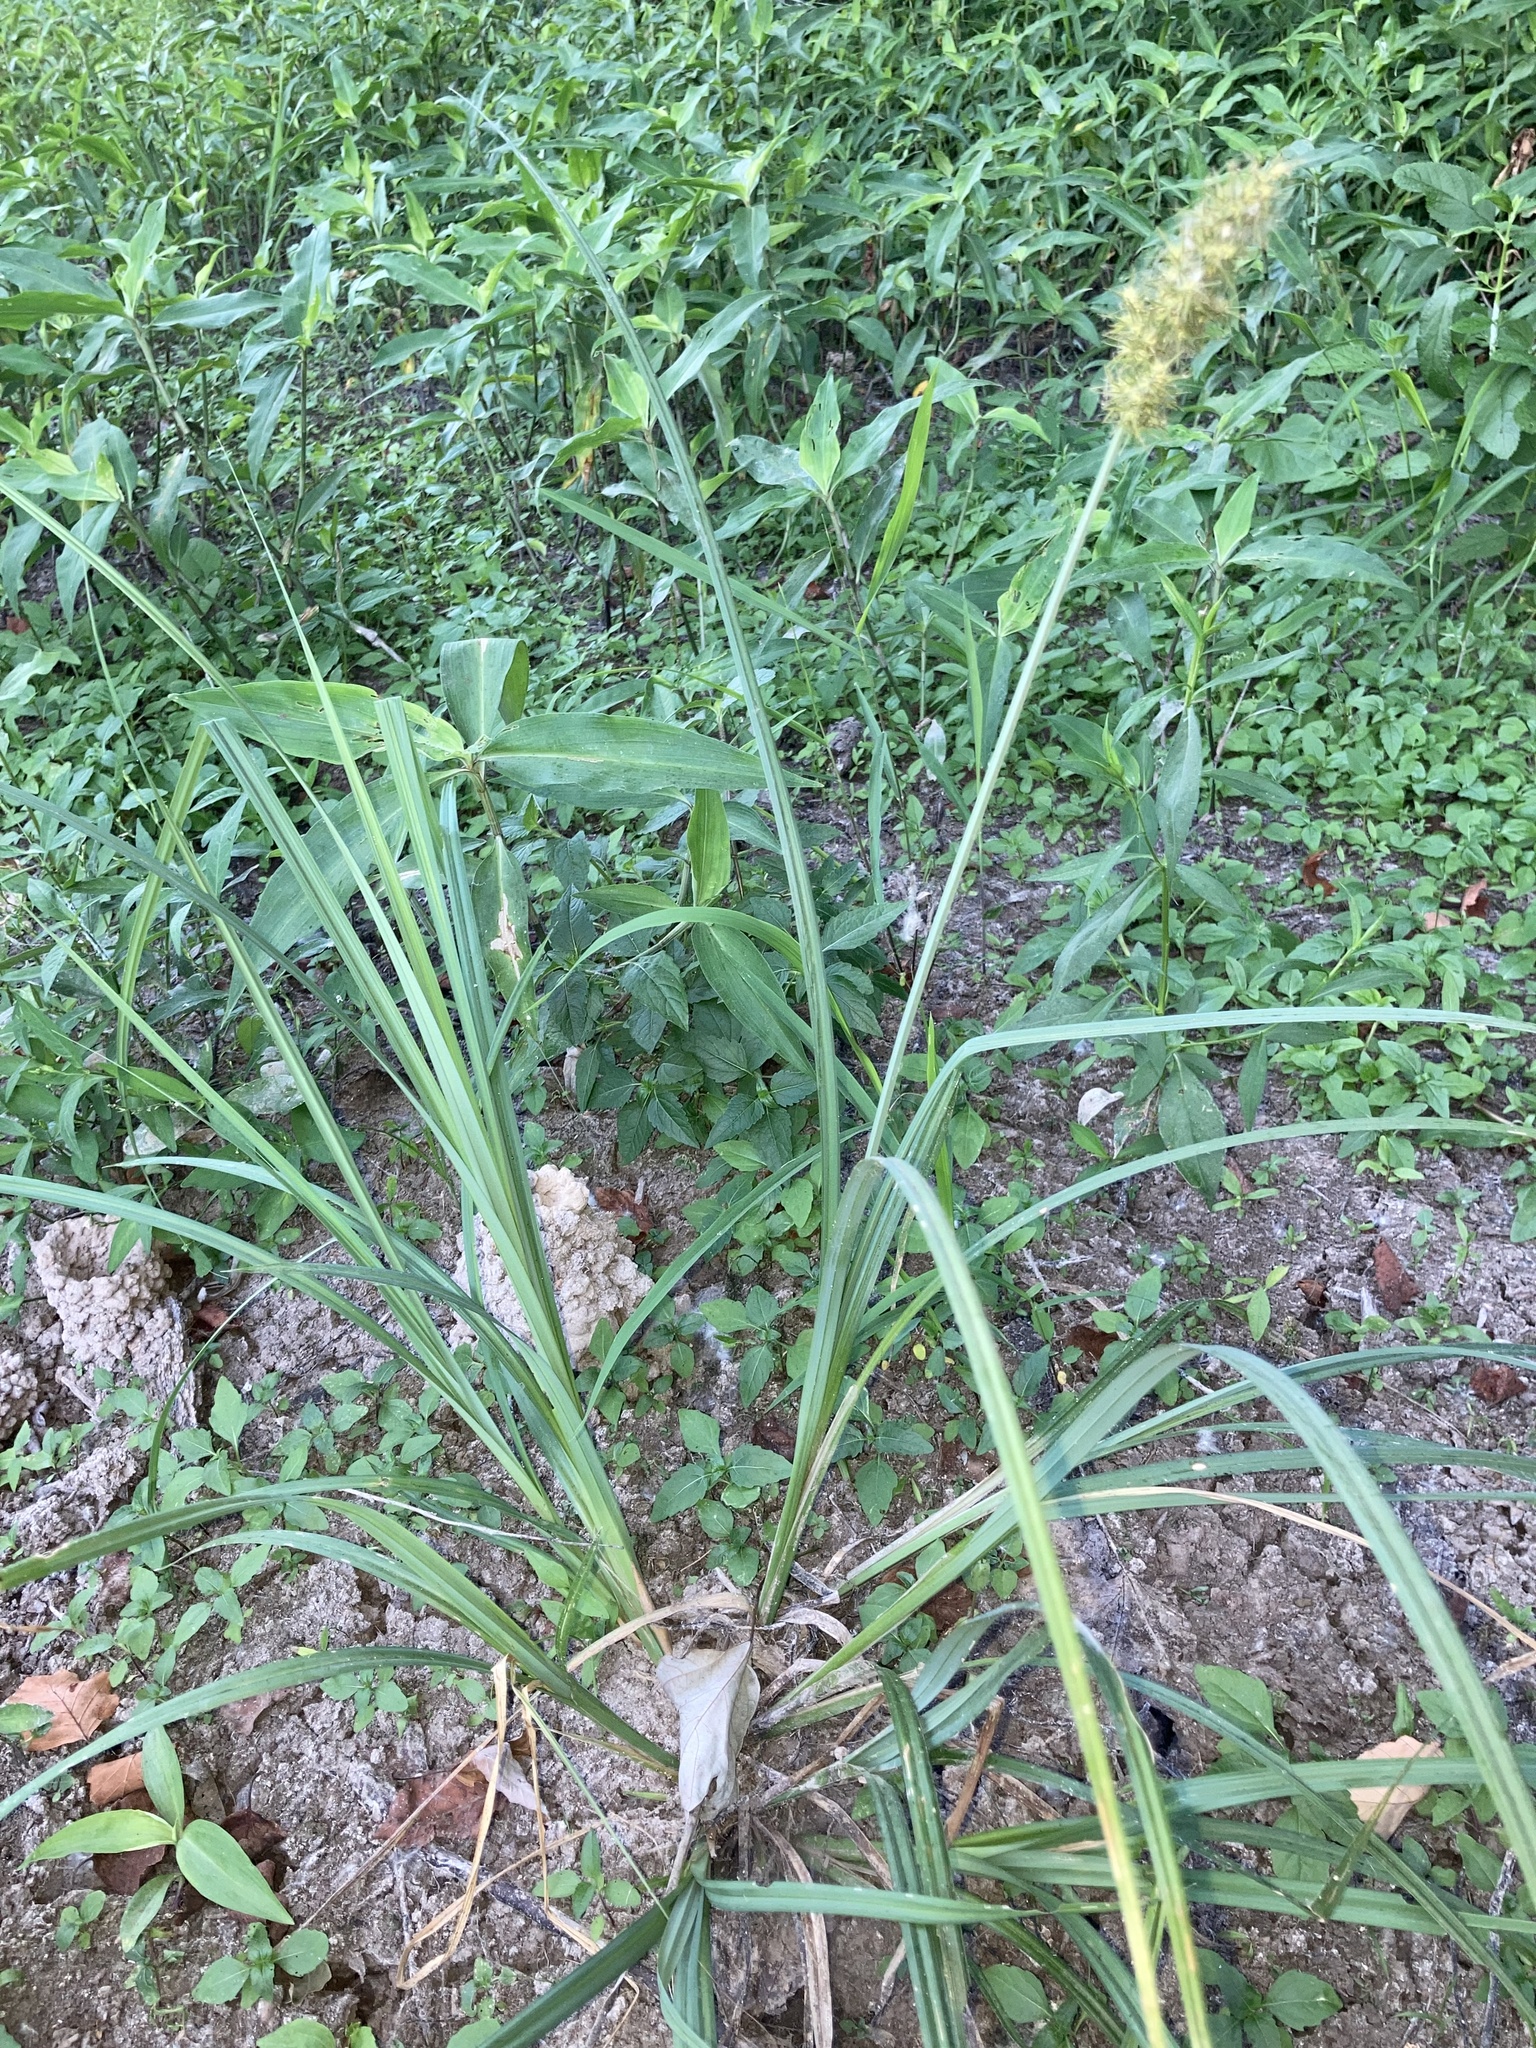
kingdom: Plantae
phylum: Tracheophyta
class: Liliopsida
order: Poales
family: Cyperaceae
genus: Carex
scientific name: Carex crus-corvi
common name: Crow-spur sedge
